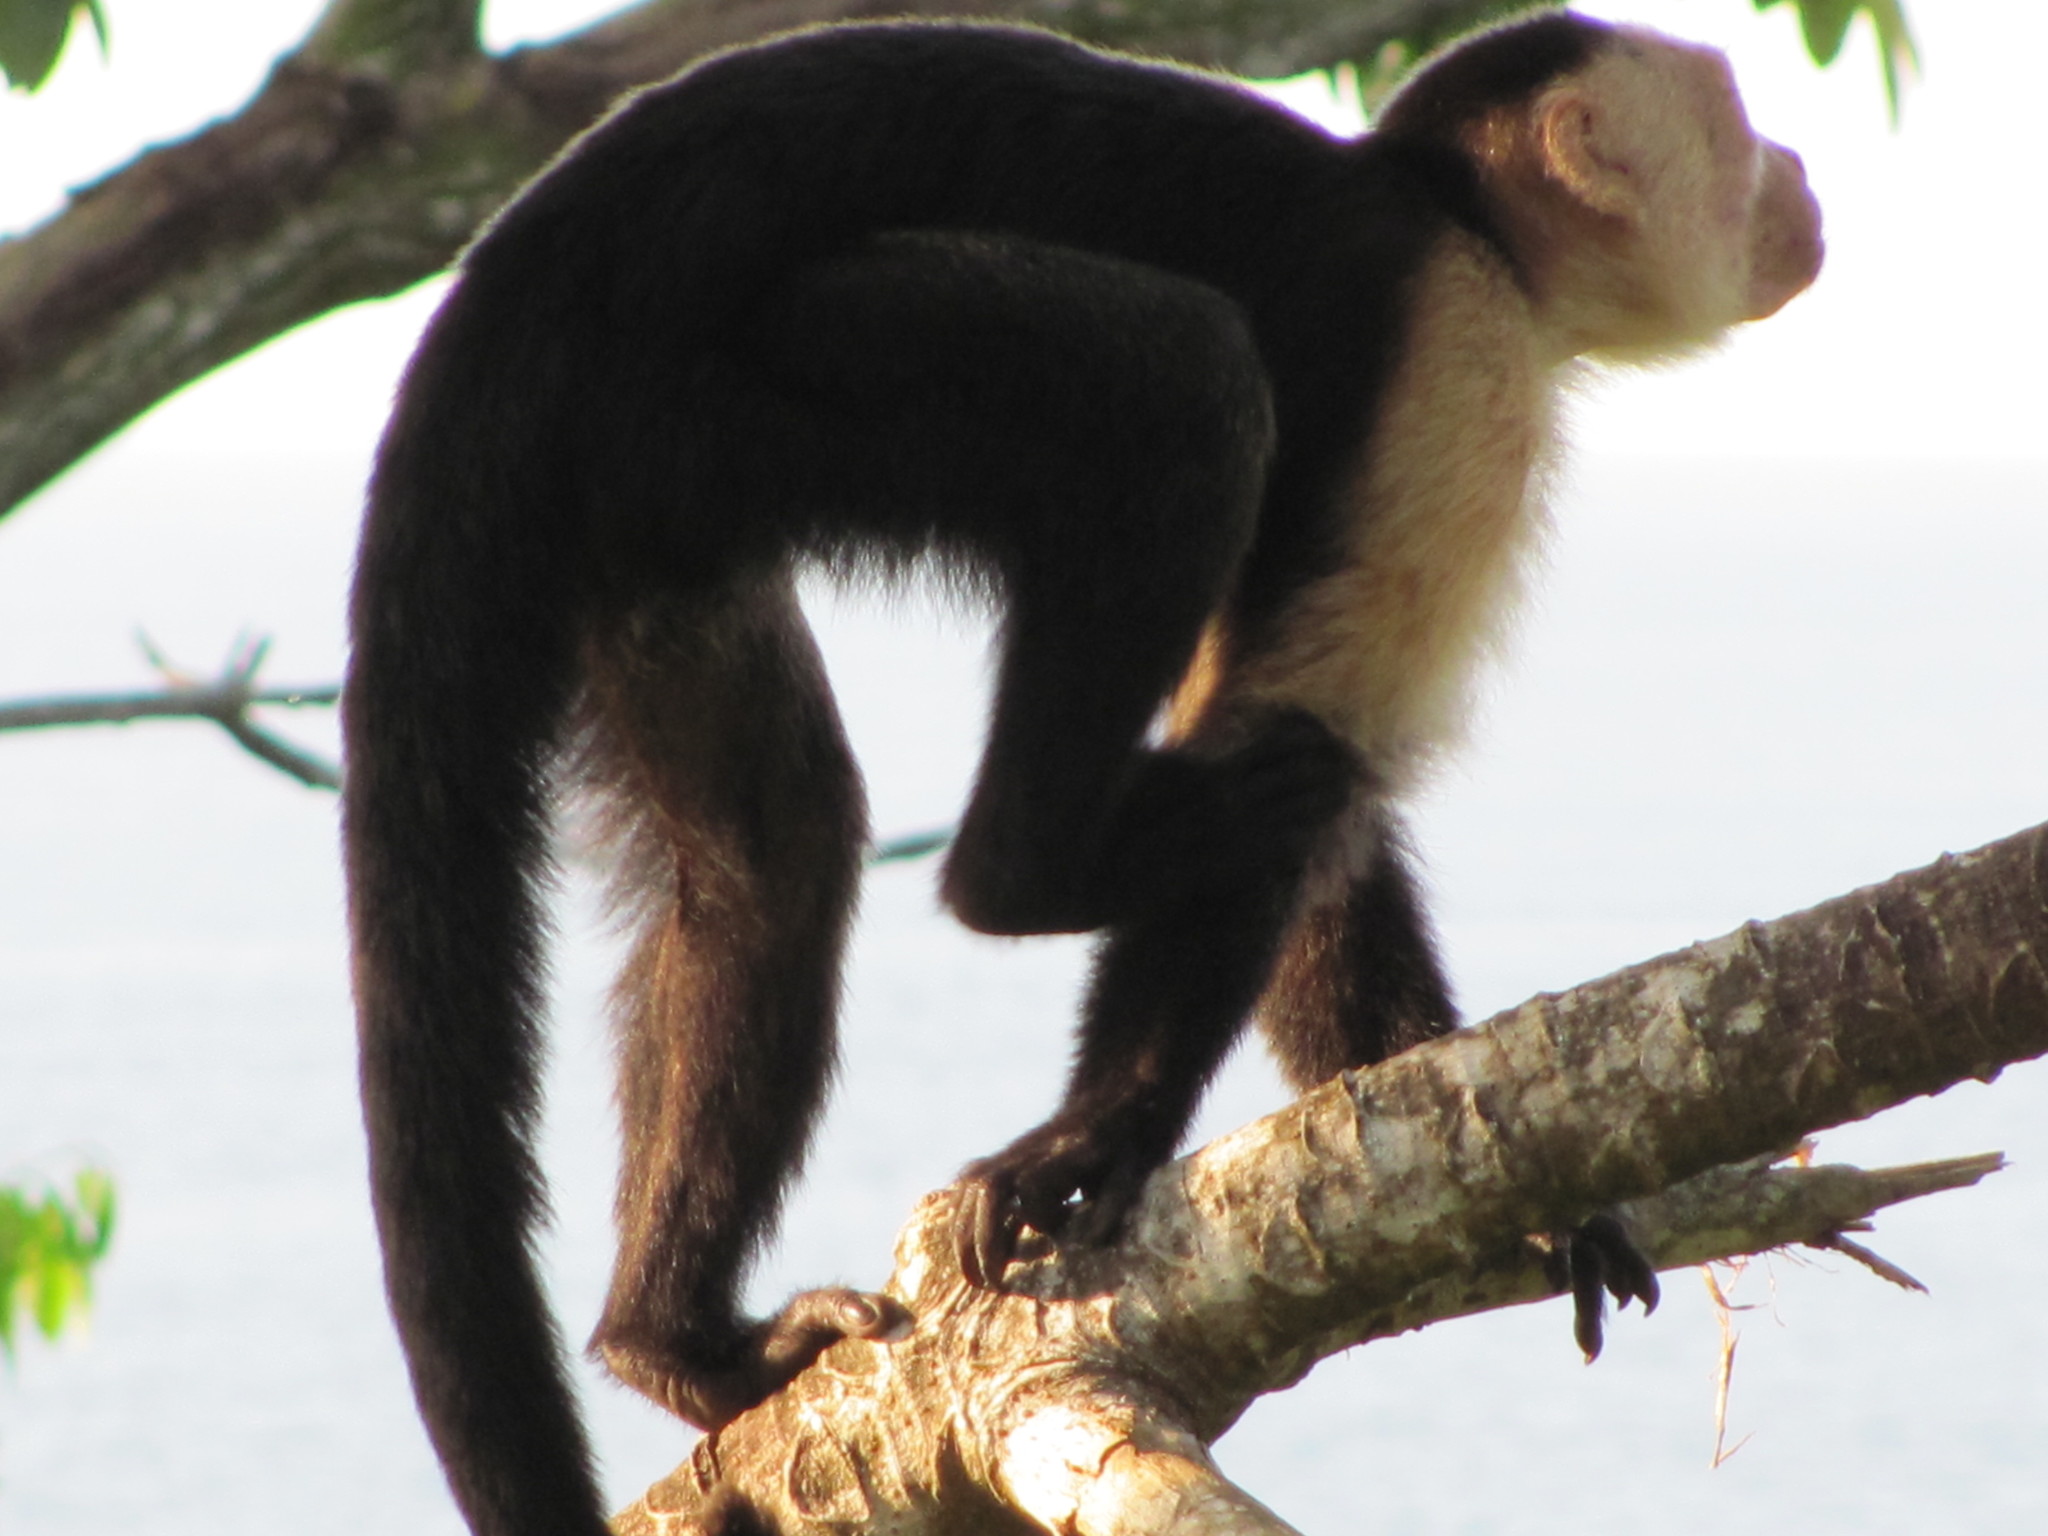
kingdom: Animalia
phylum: Chordata
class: Mammalia
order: Primates
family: Cebidae
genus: Cebus
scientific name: Cebus imitator
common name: Panamanian white-faced capuchin
